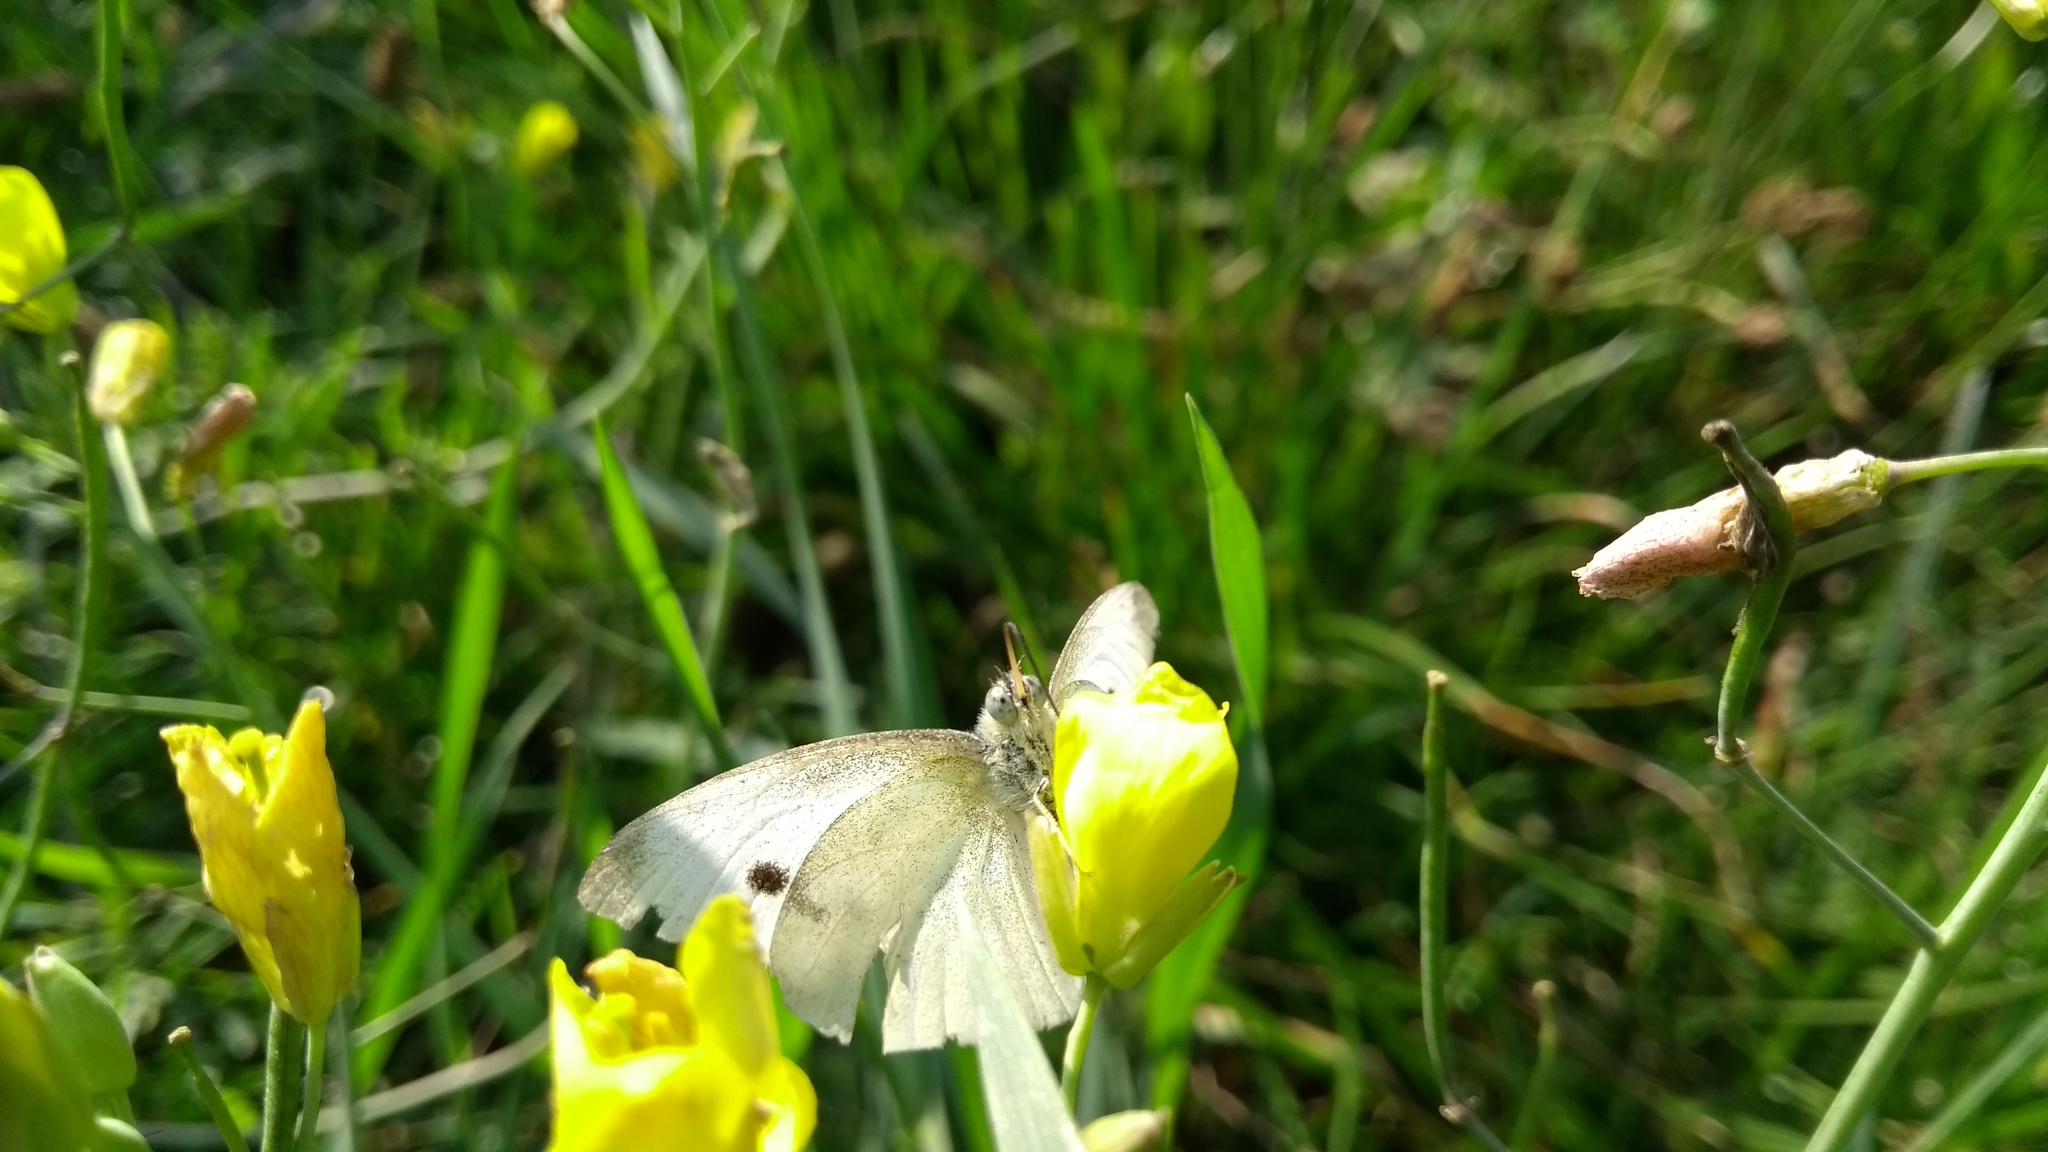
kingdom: Animalia
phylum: Arthropoda
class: Insecta
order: Lepidoptera
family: Pieridae
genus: Pieris
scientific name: Pieris rapae
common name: Small white
